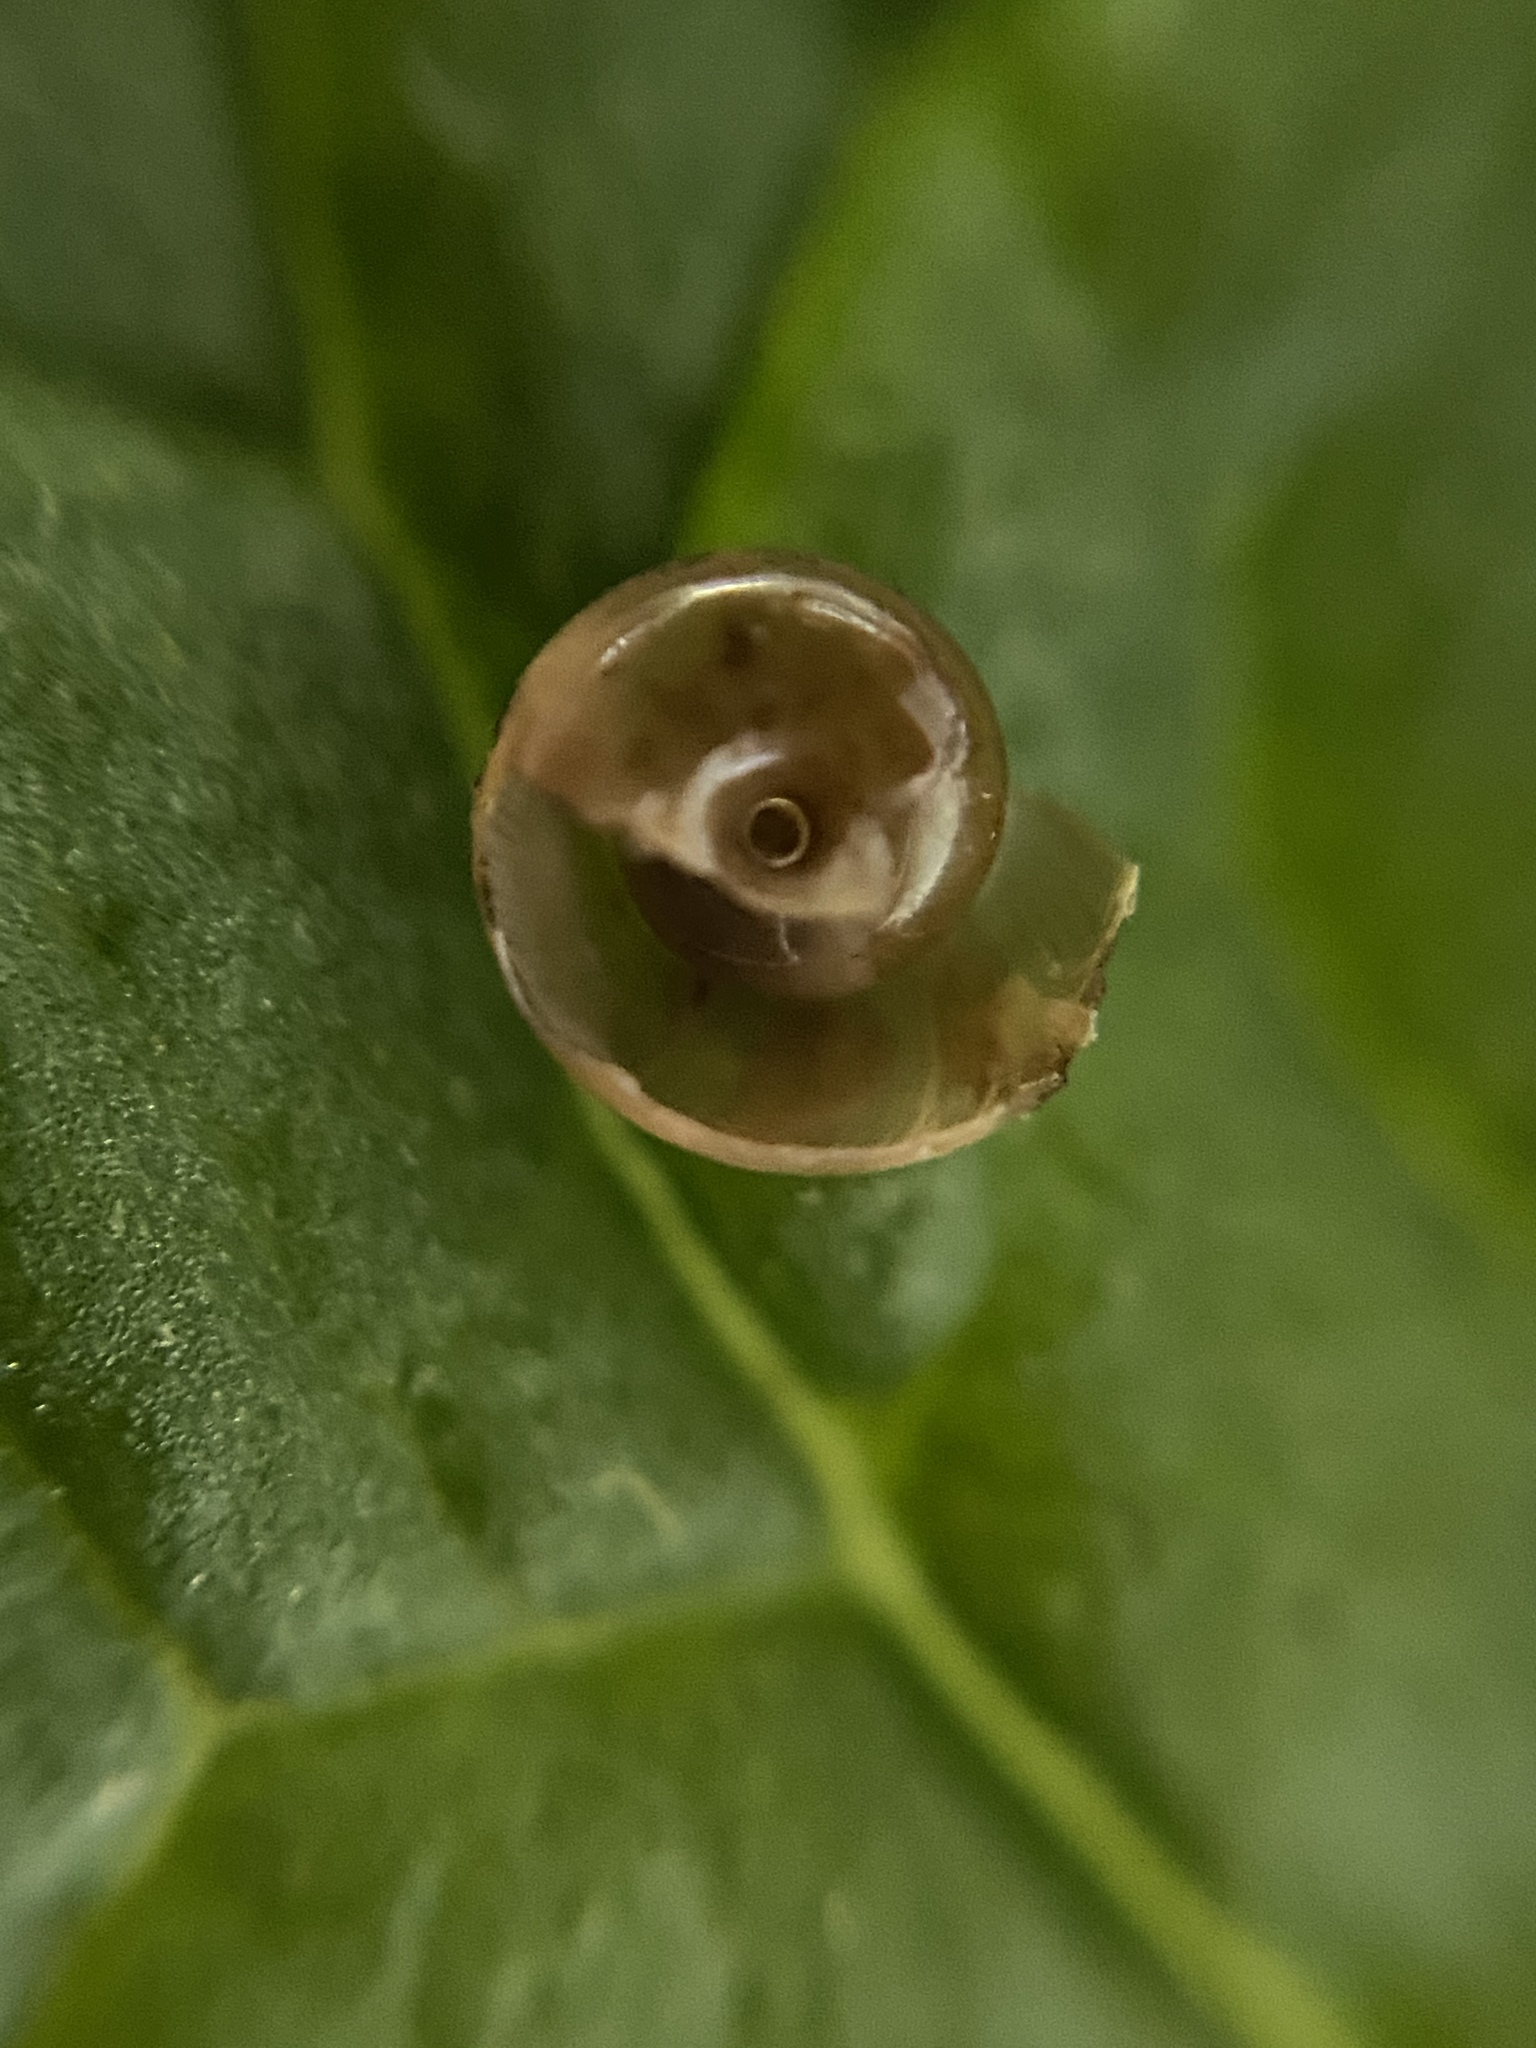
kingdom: Animalia
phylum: Mollusca
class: Gastropoda
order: Stylommatophora
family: Gastrodontidae
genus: Perpolita
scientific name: Perpolita electrina
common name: Amber glass
